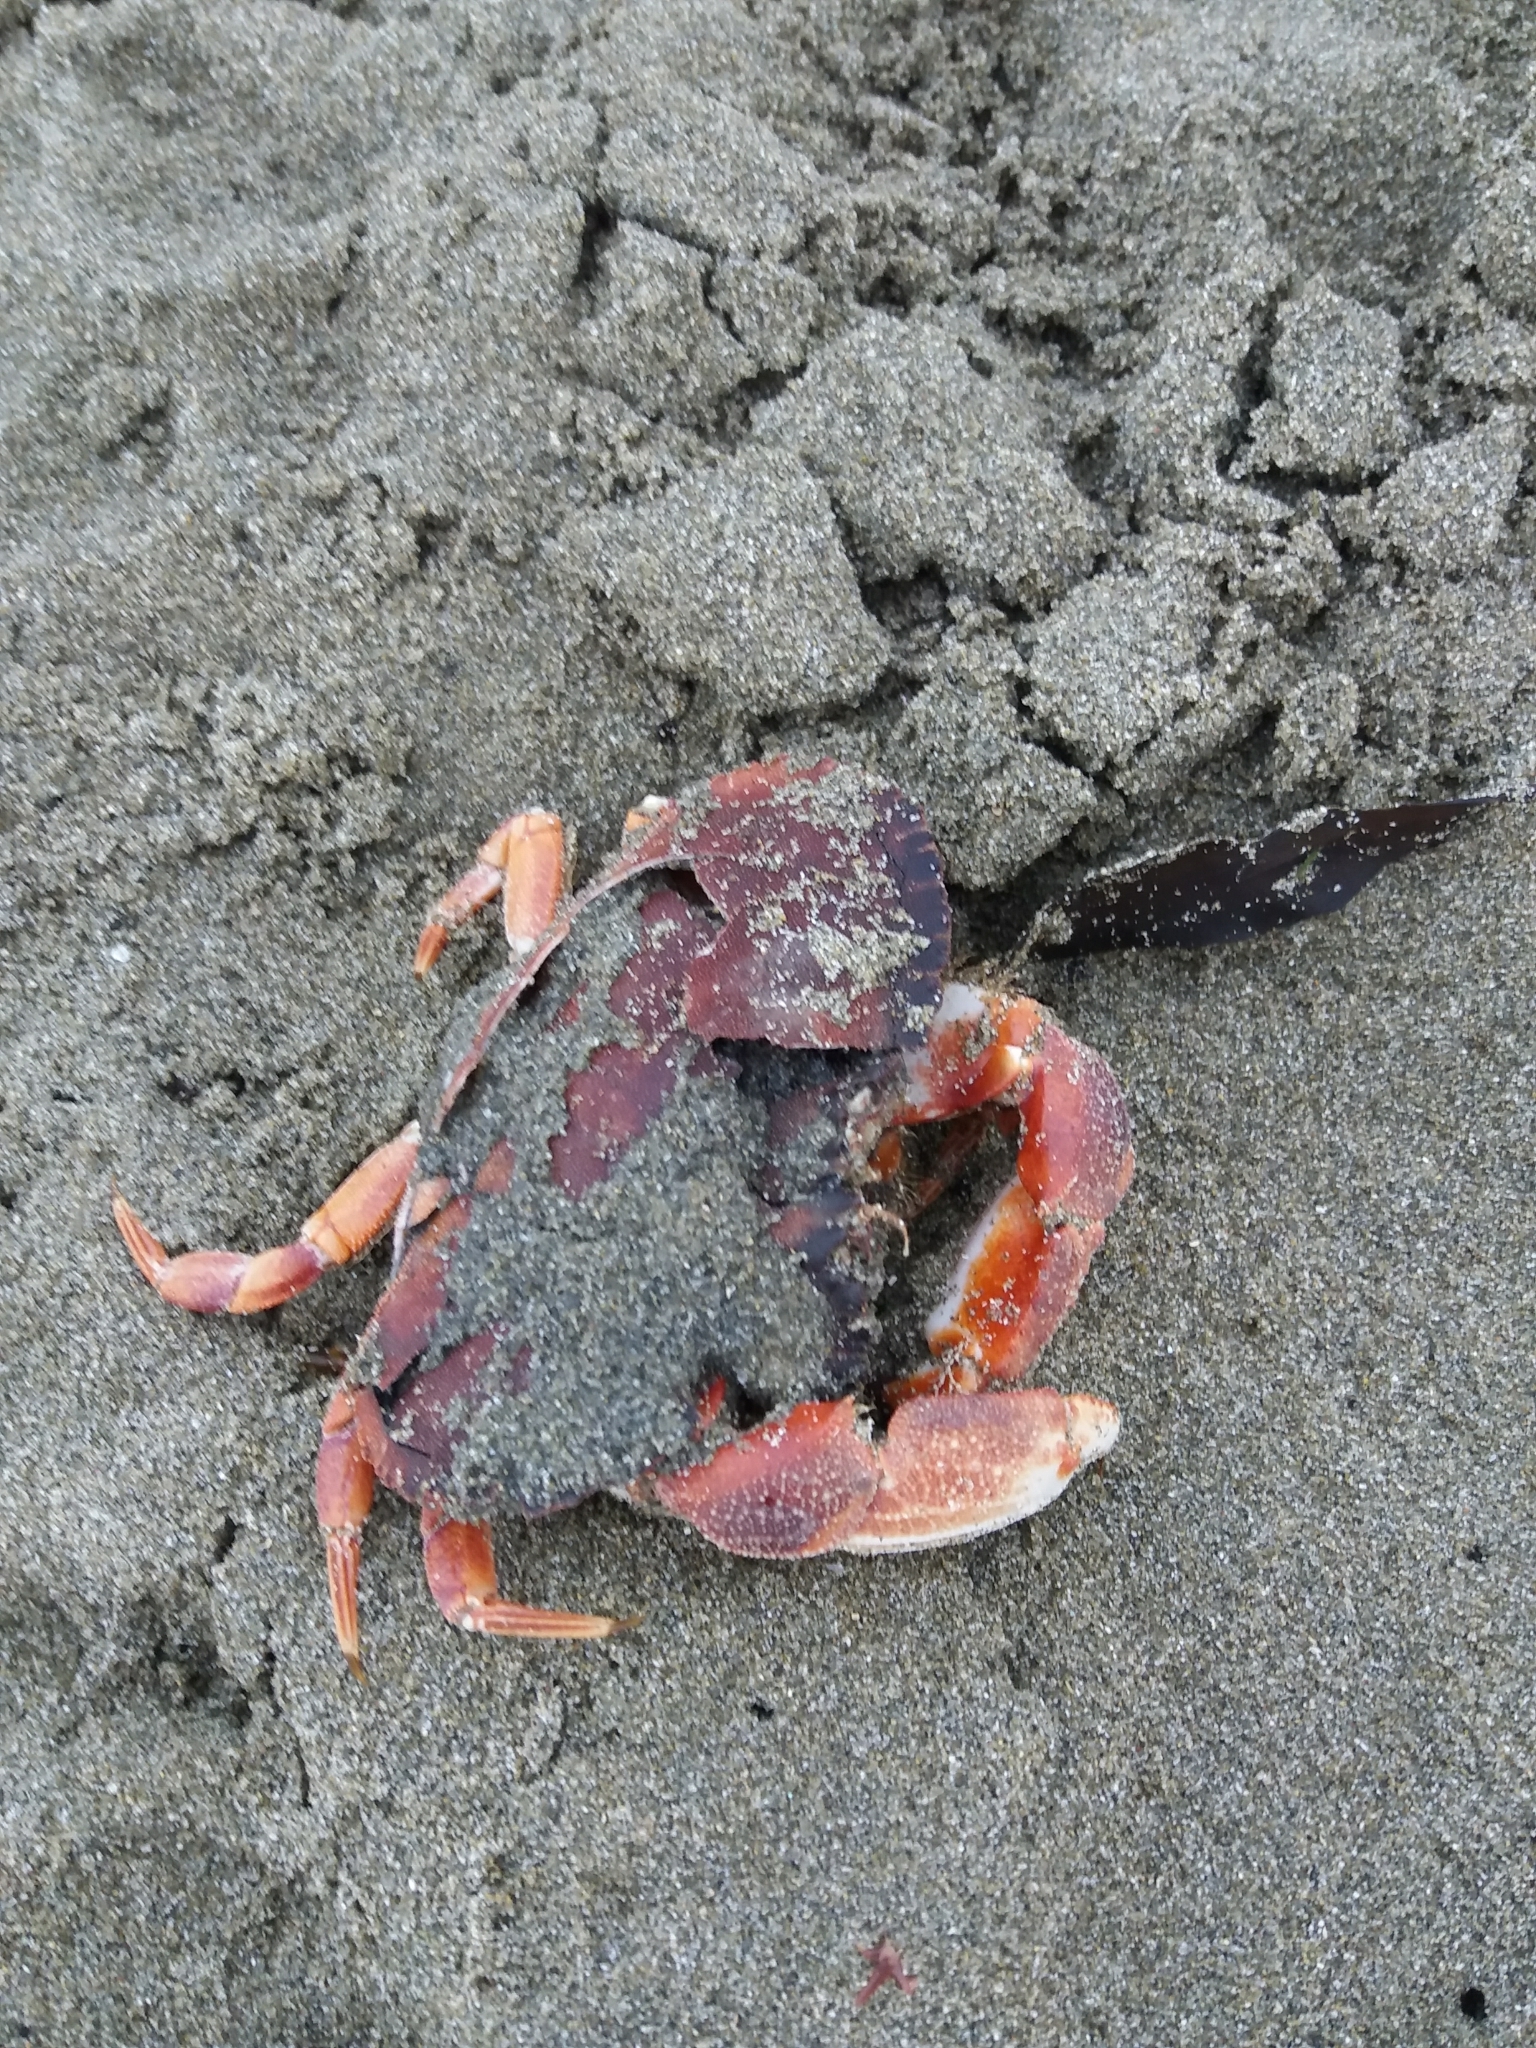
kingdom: Animalia
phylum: Arthropoda
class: Malacostraca
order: Decapoda
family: Cancridae
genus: Metacarcinus
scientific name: Metacarcinus novaezelandiae
